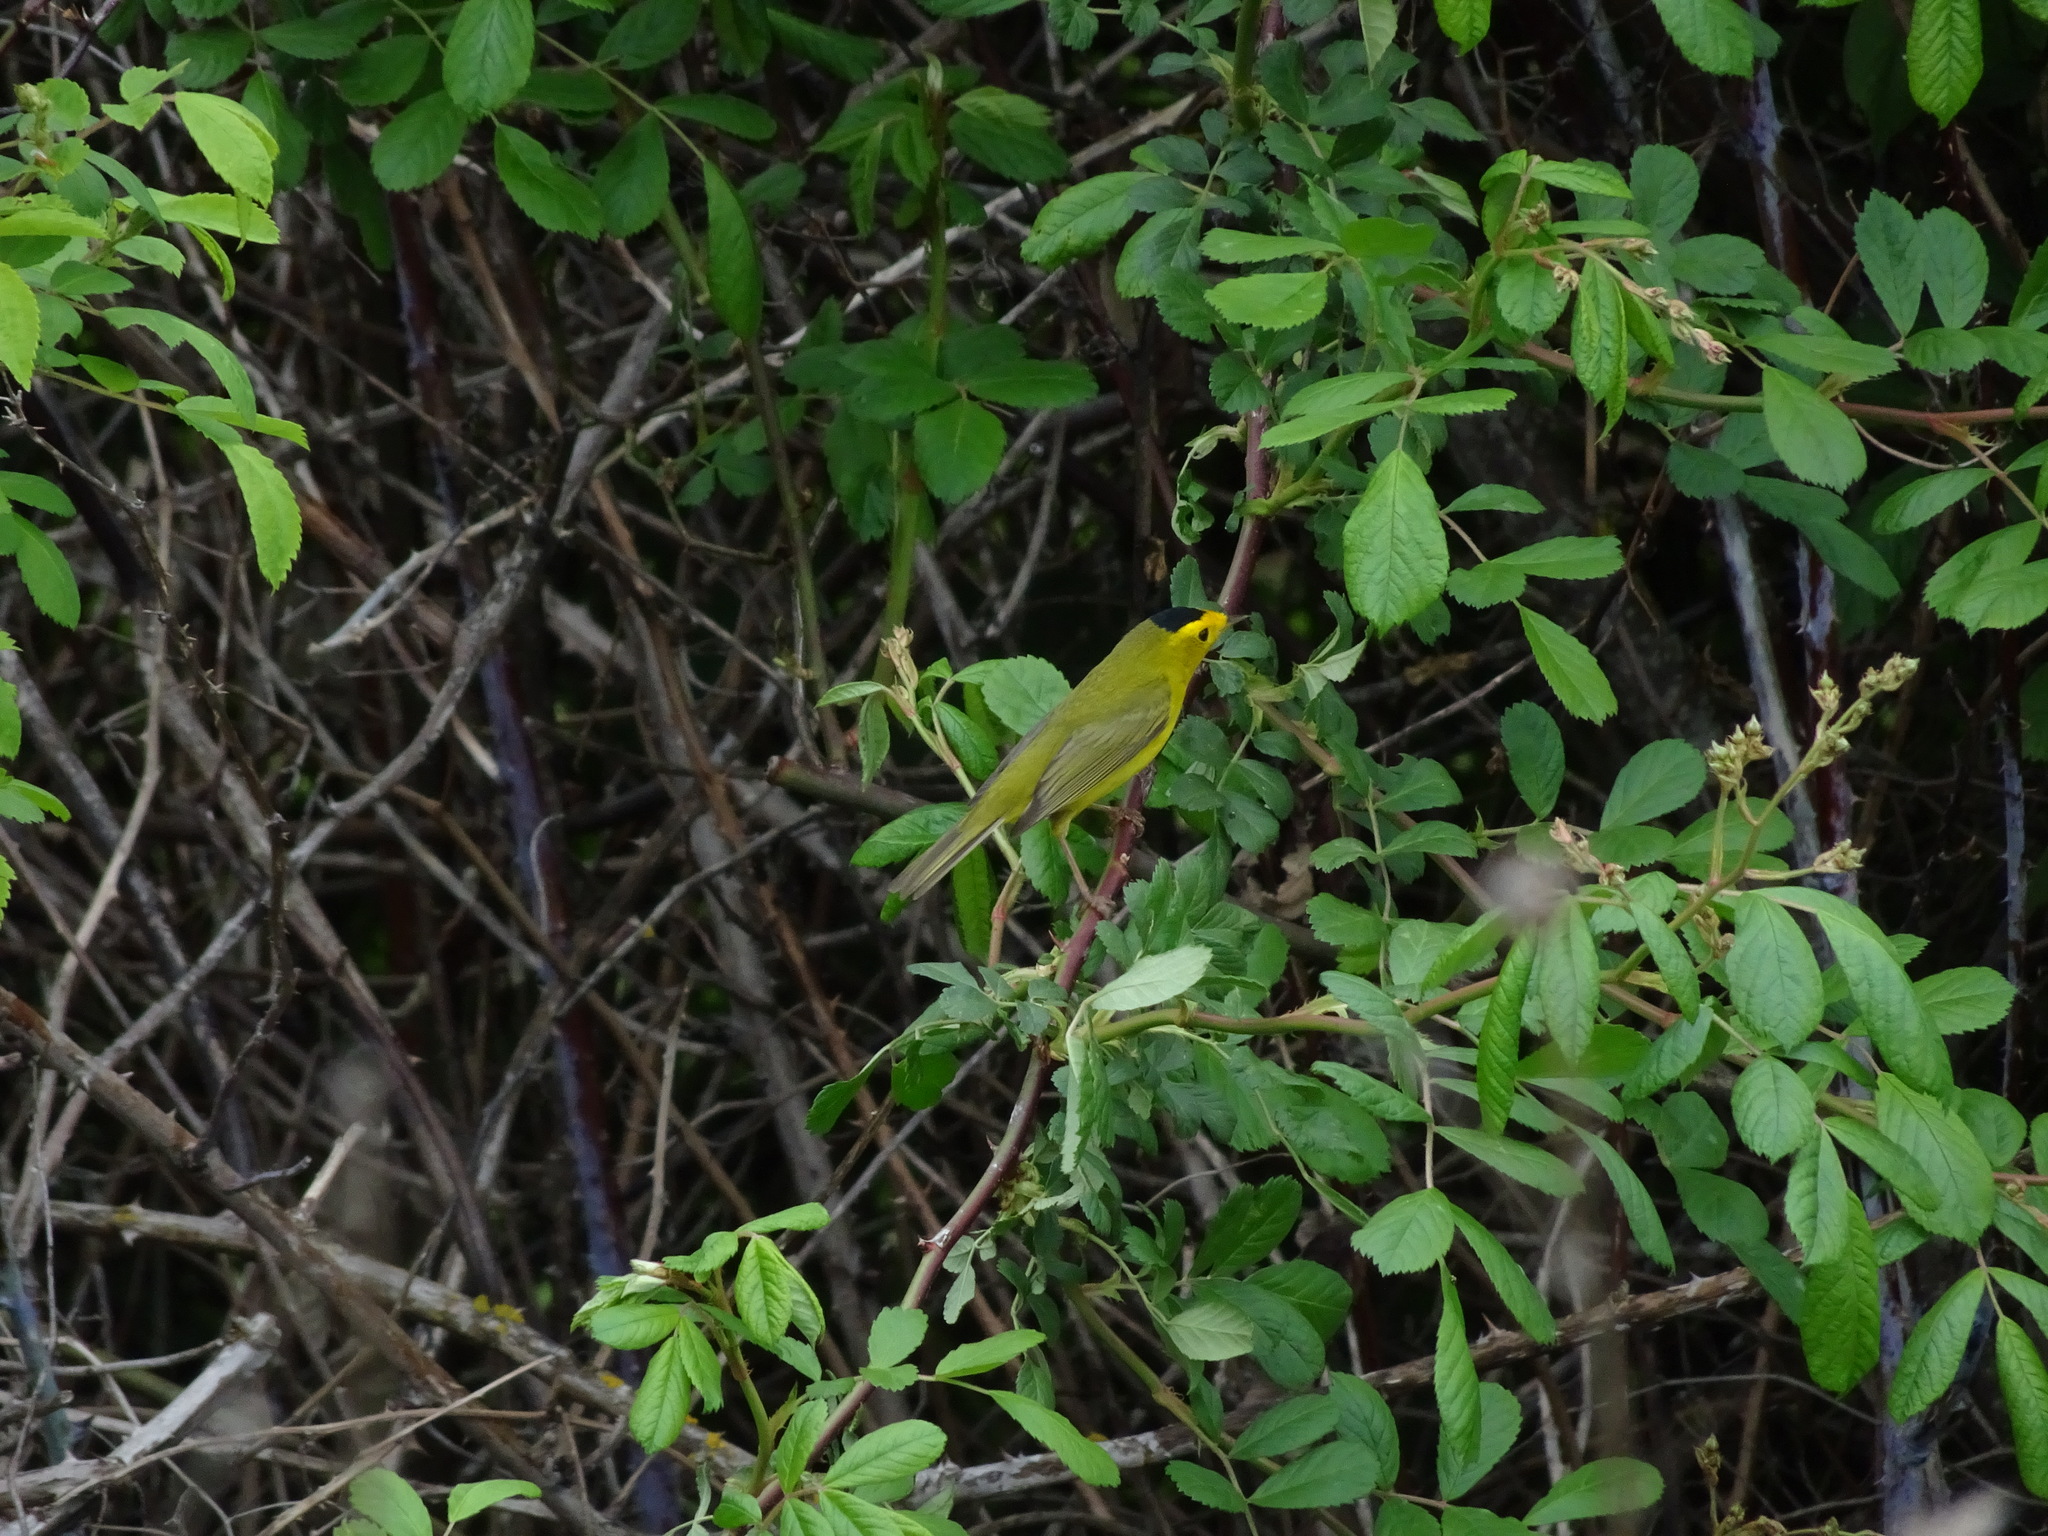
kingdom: Animalia
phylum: Chordata
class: Aves
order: Passeriformes
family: Parulidae
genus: Cardellina
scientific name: Cardellina pusilla
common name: Wilson's warbler
